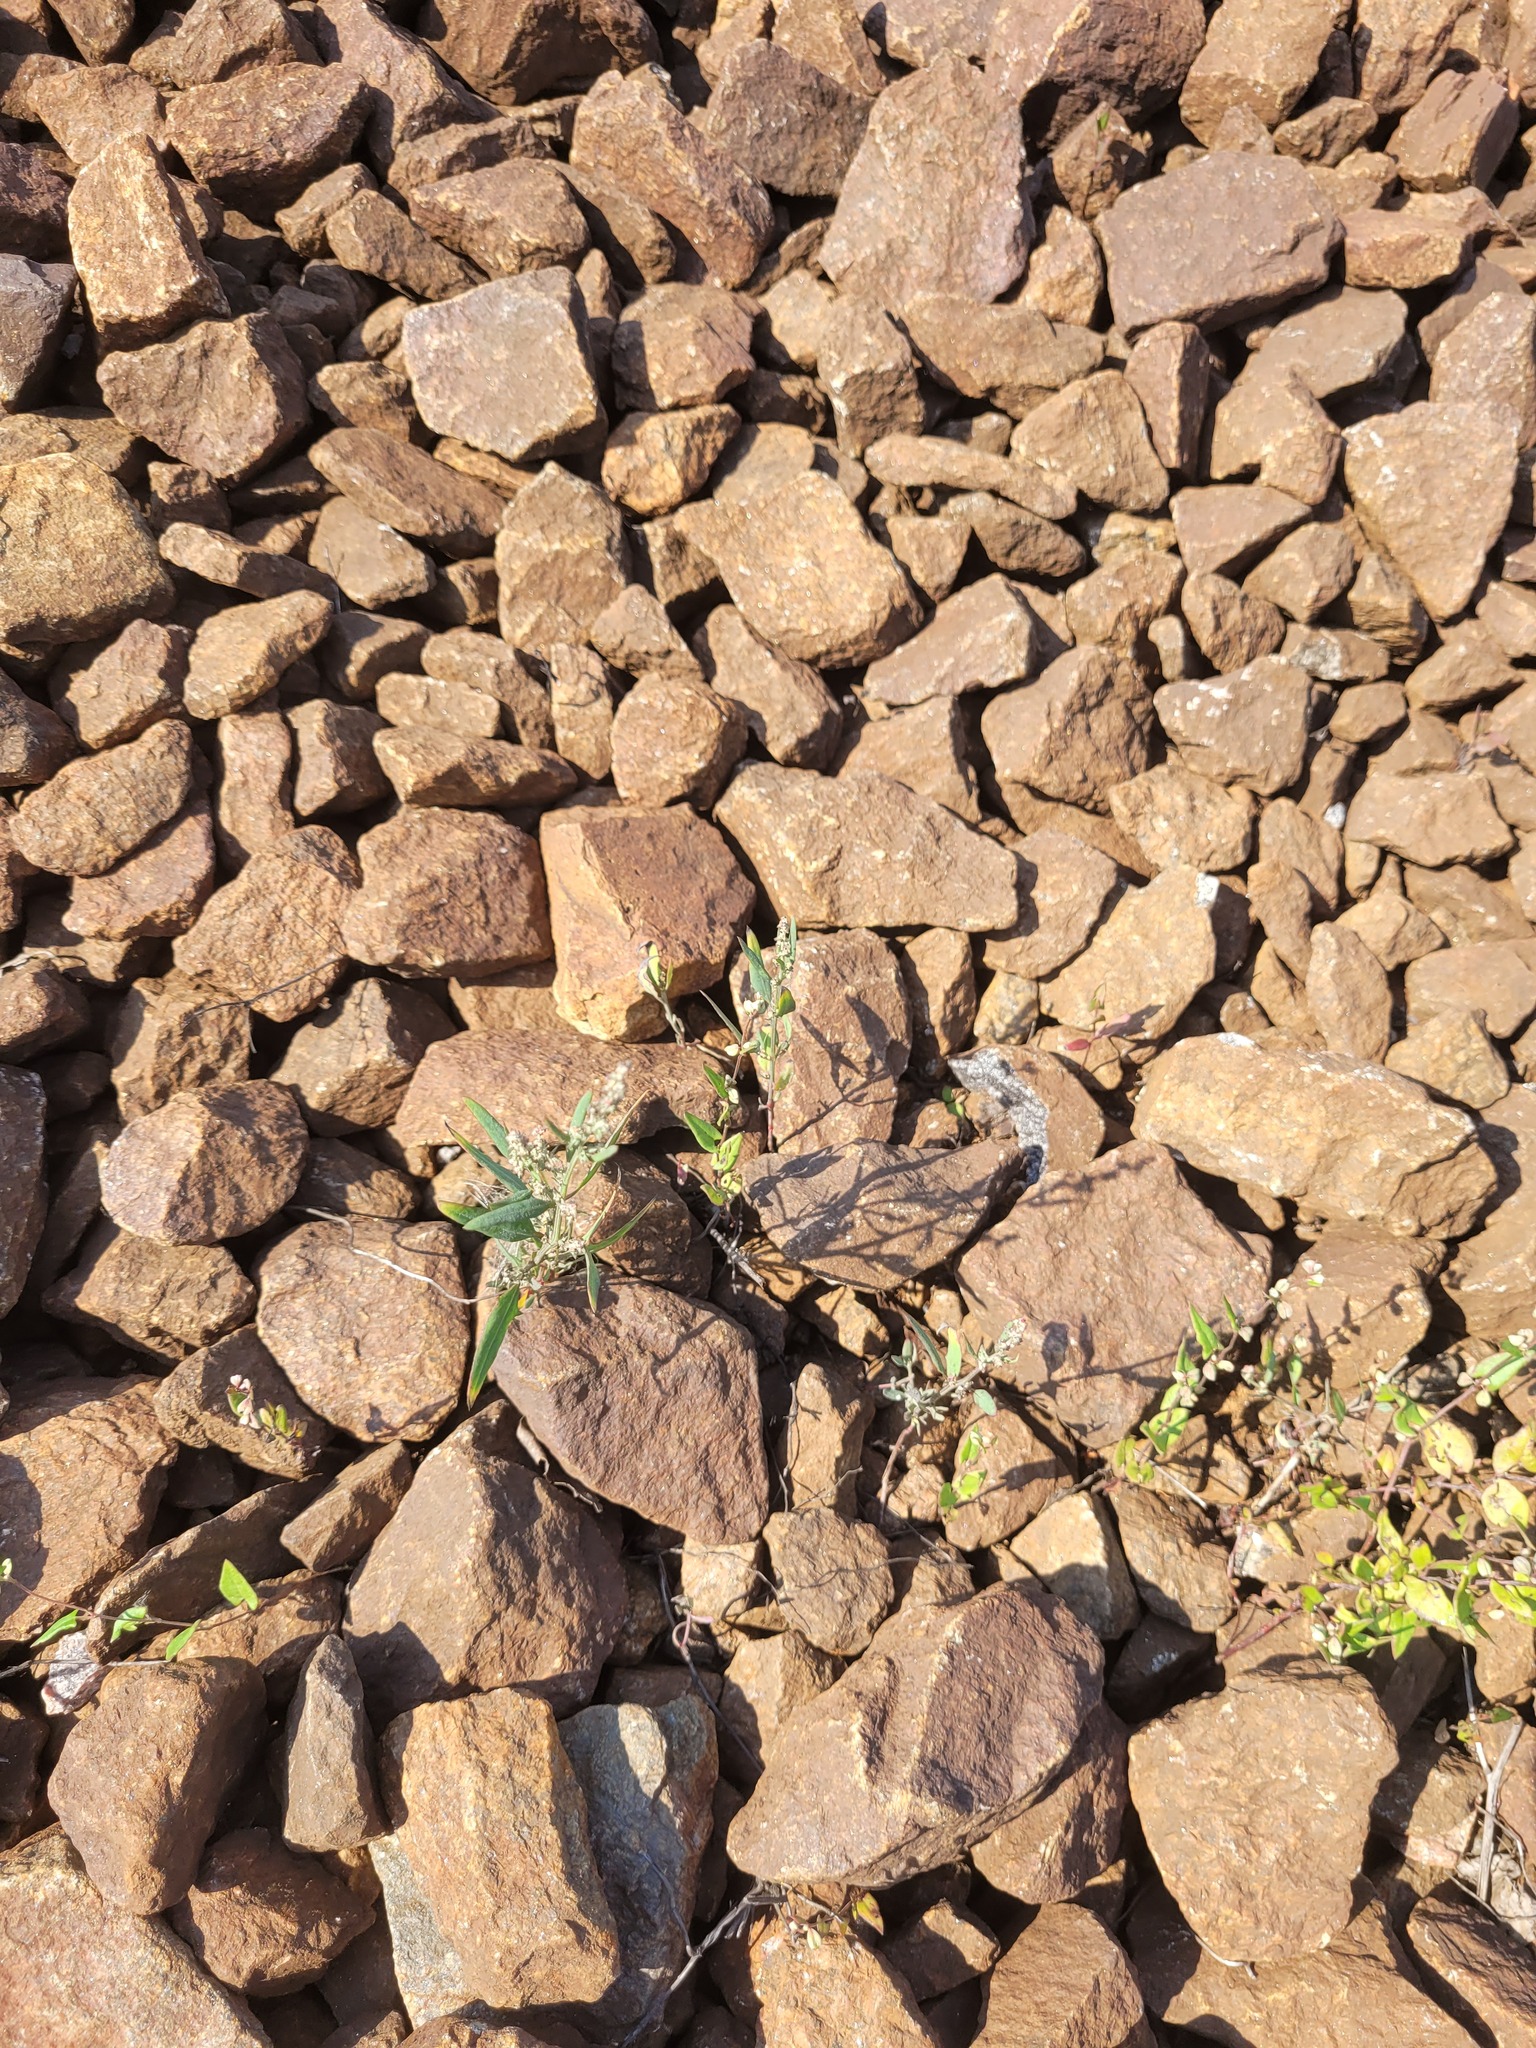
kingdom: Plantae
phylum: Tracheophyta
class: Magnoliopsida
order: Caryophyllales
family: Amaranthaceae
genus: Chenopodium
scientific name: Chenopodium album
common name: Fat-hen
